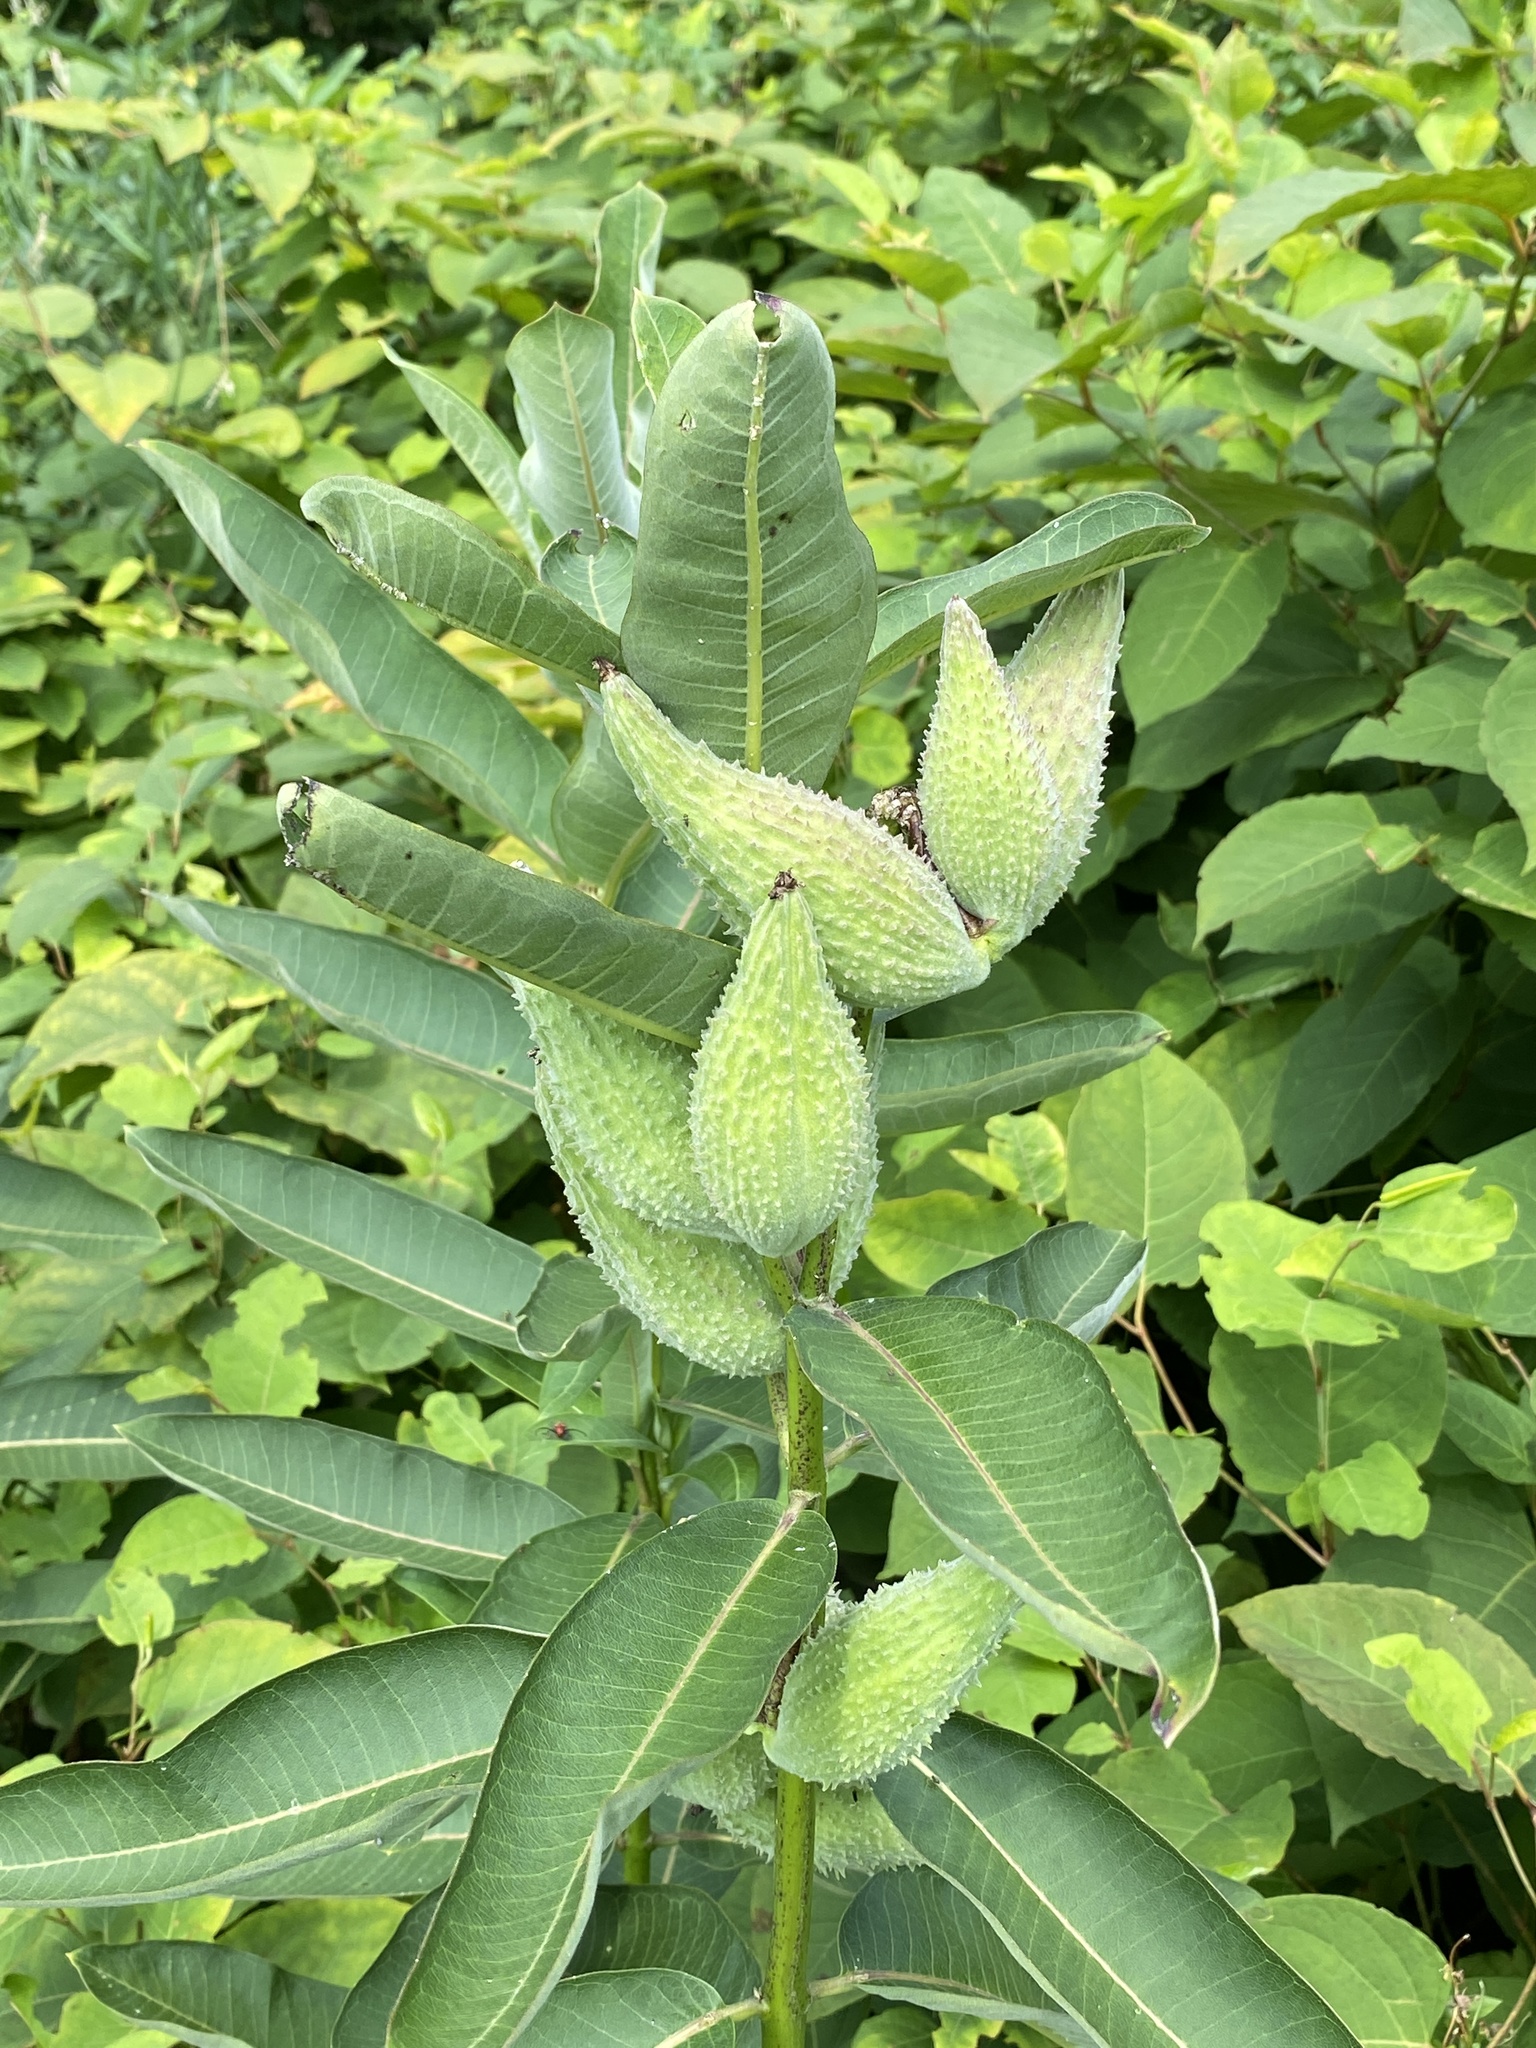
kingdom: Plantae
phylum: Tracheophyta
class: Magnoliopsida
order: Gentianales
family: Apocynaceae
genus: Asclepias
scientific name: Asclepias syriaca
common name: Common milkweed
